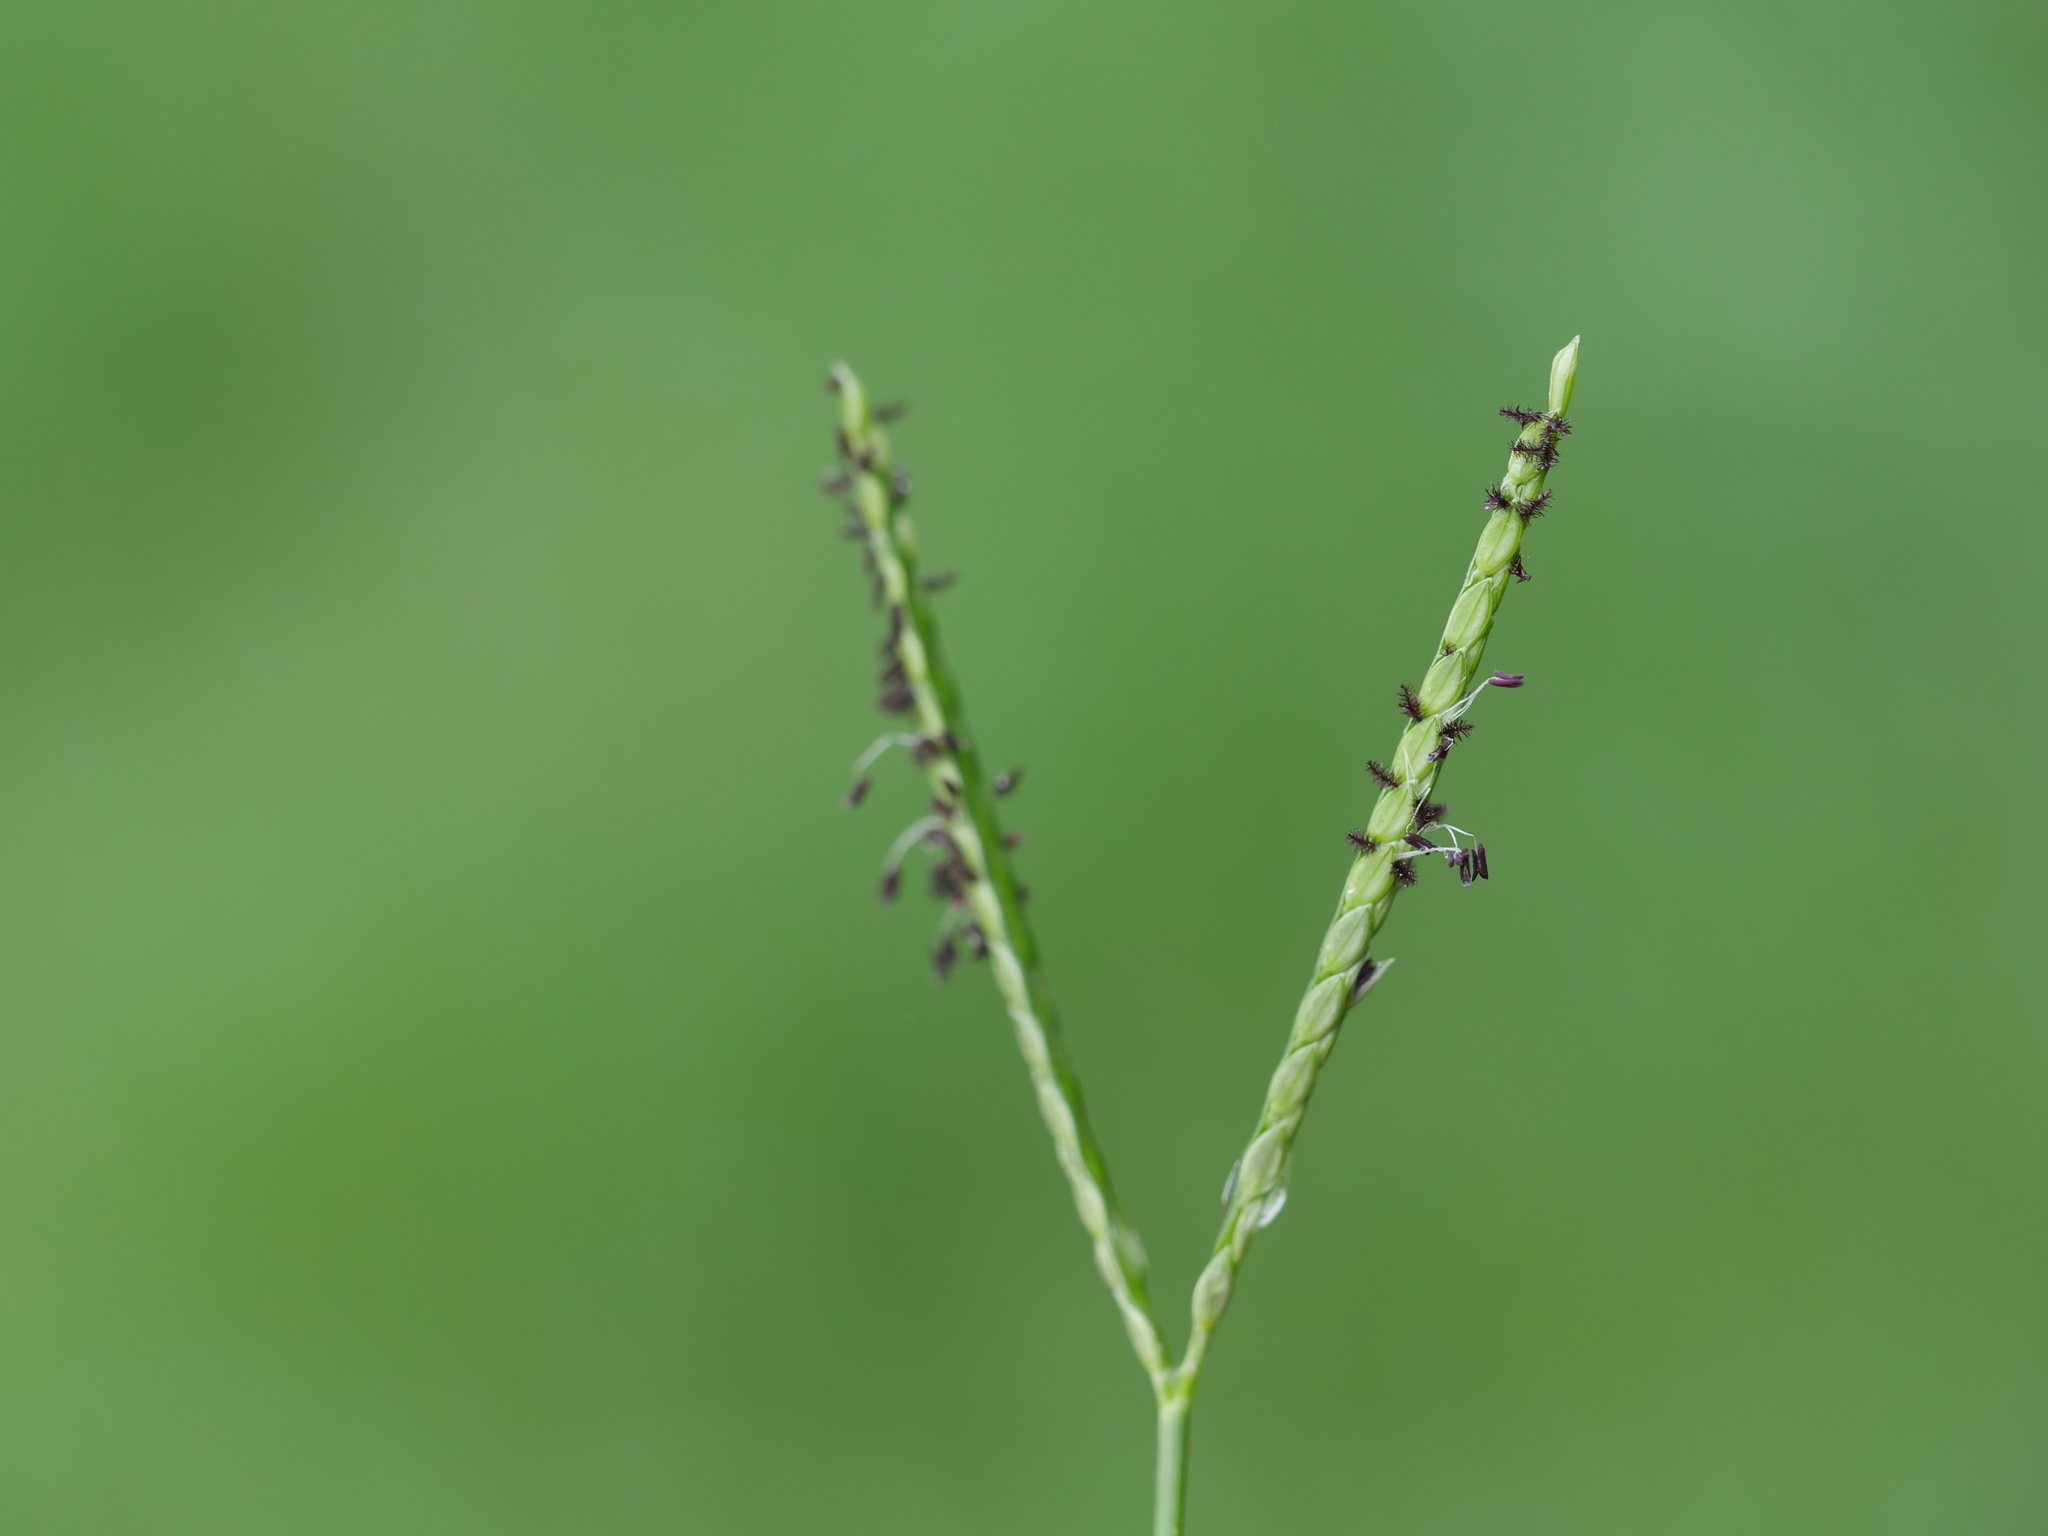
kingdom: Plantae
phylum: Tracheophyta
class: Liliopsida
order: Poales
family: Poaceae
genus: Paspalum
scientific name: Paspalum distichum
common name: Knotgrass
